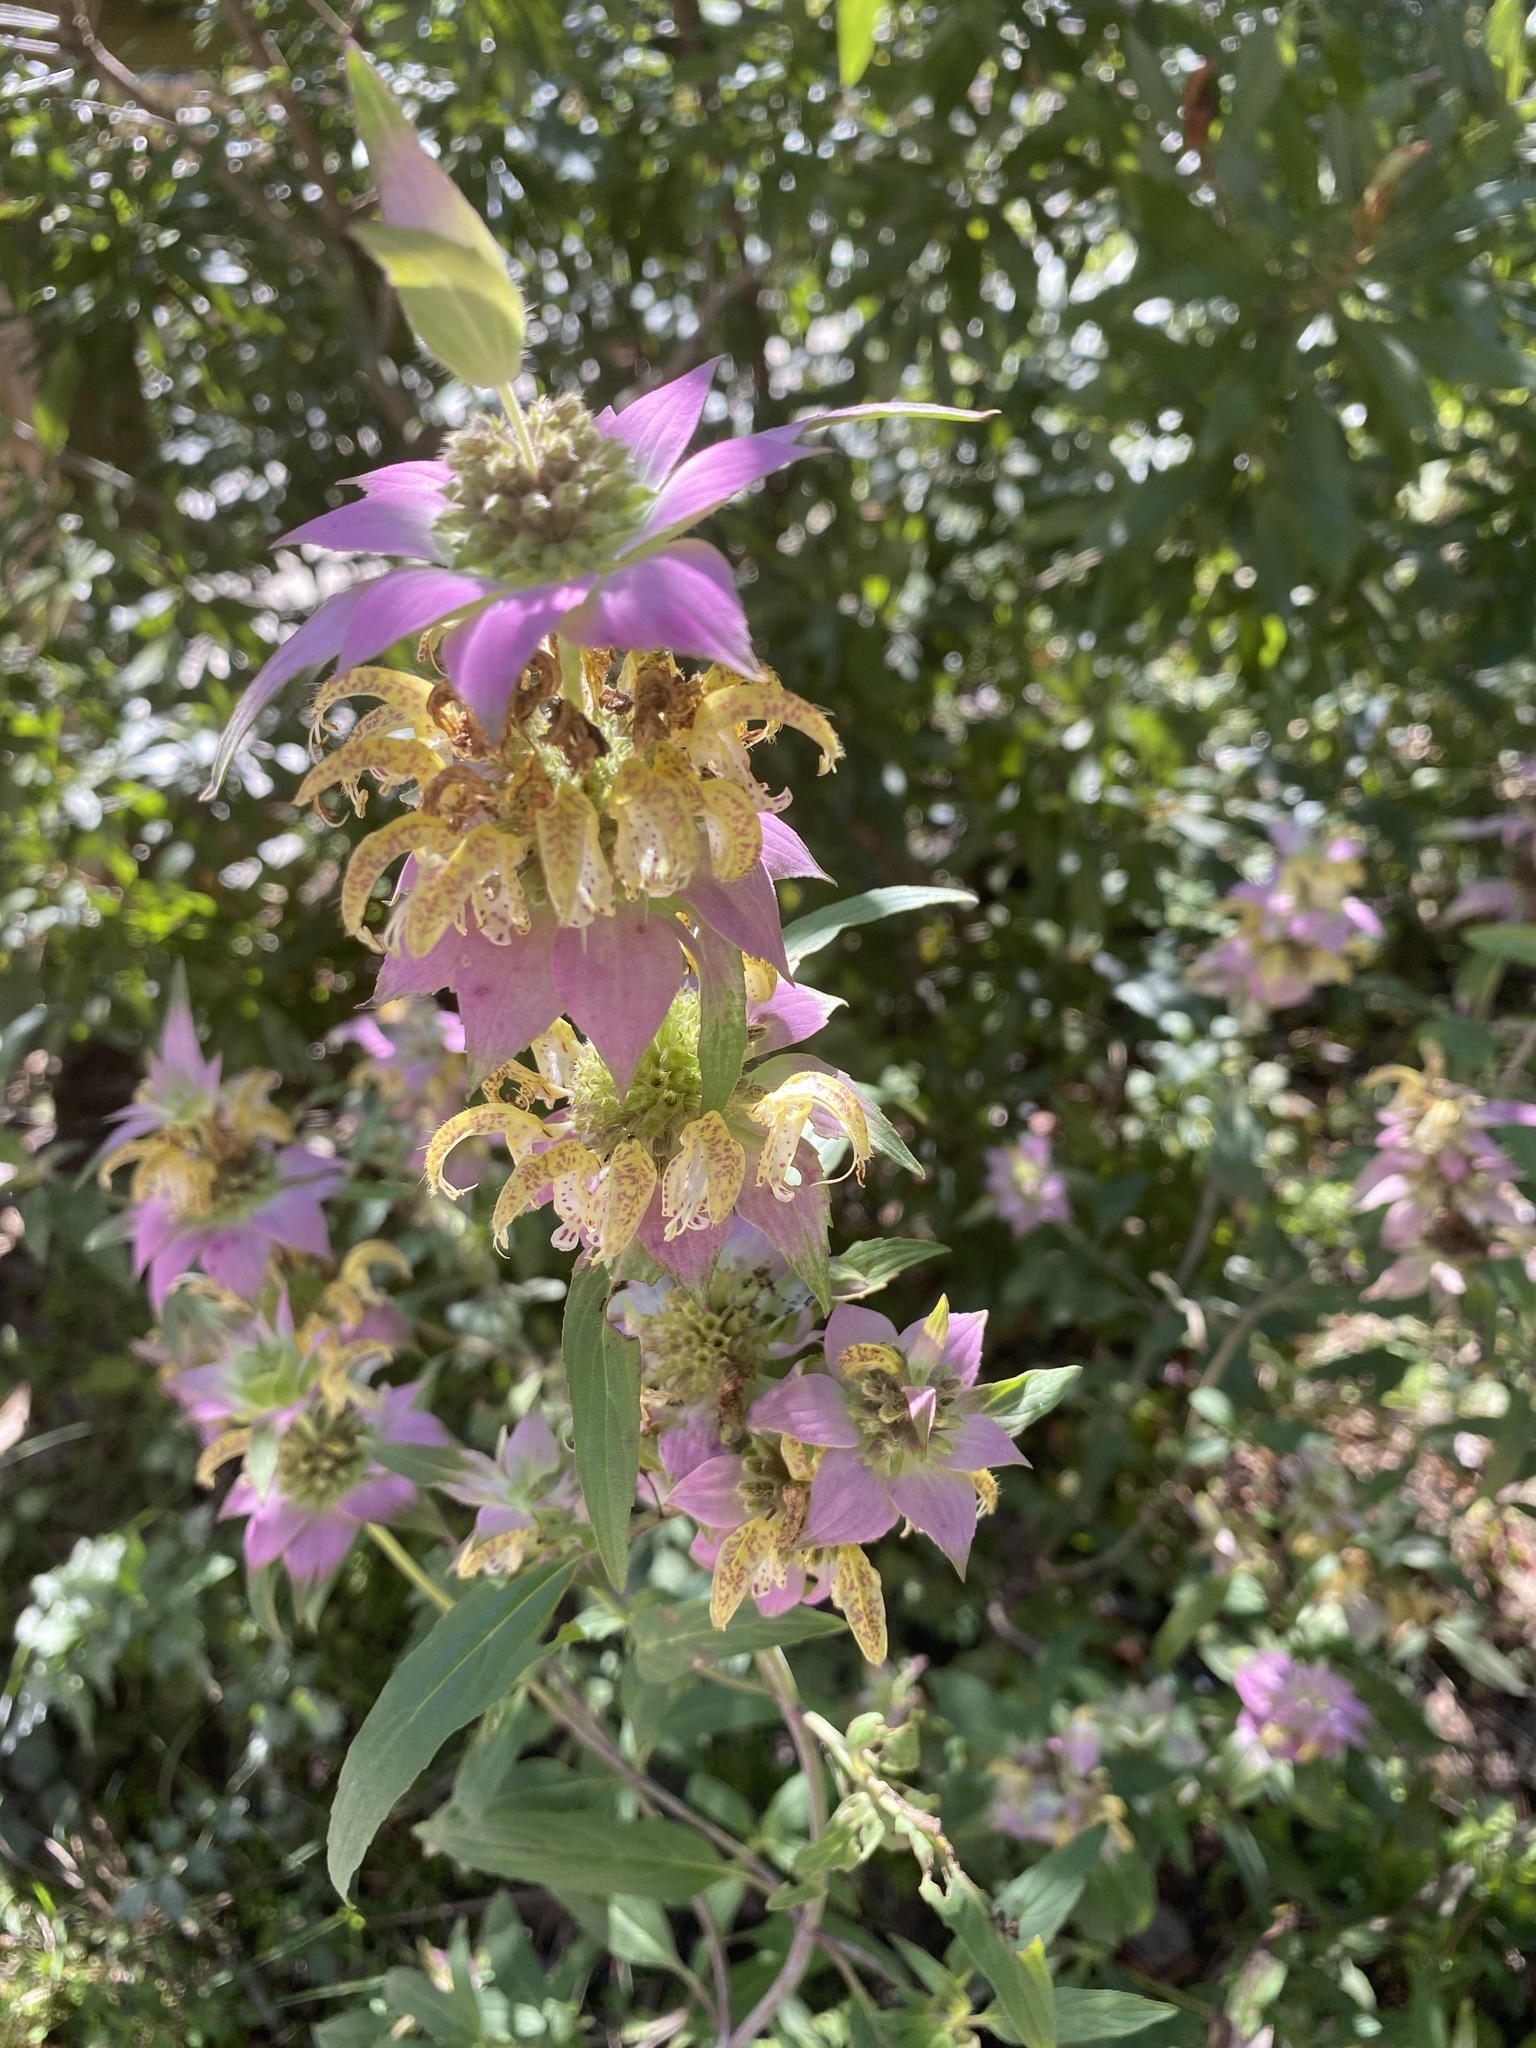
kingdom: Plantae
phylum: Tracheophyta
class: Magnoliopsida
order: Lamiales
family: Lamiaceae
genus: Monarda
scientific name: Monarda punctata
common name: Dotted monarda
